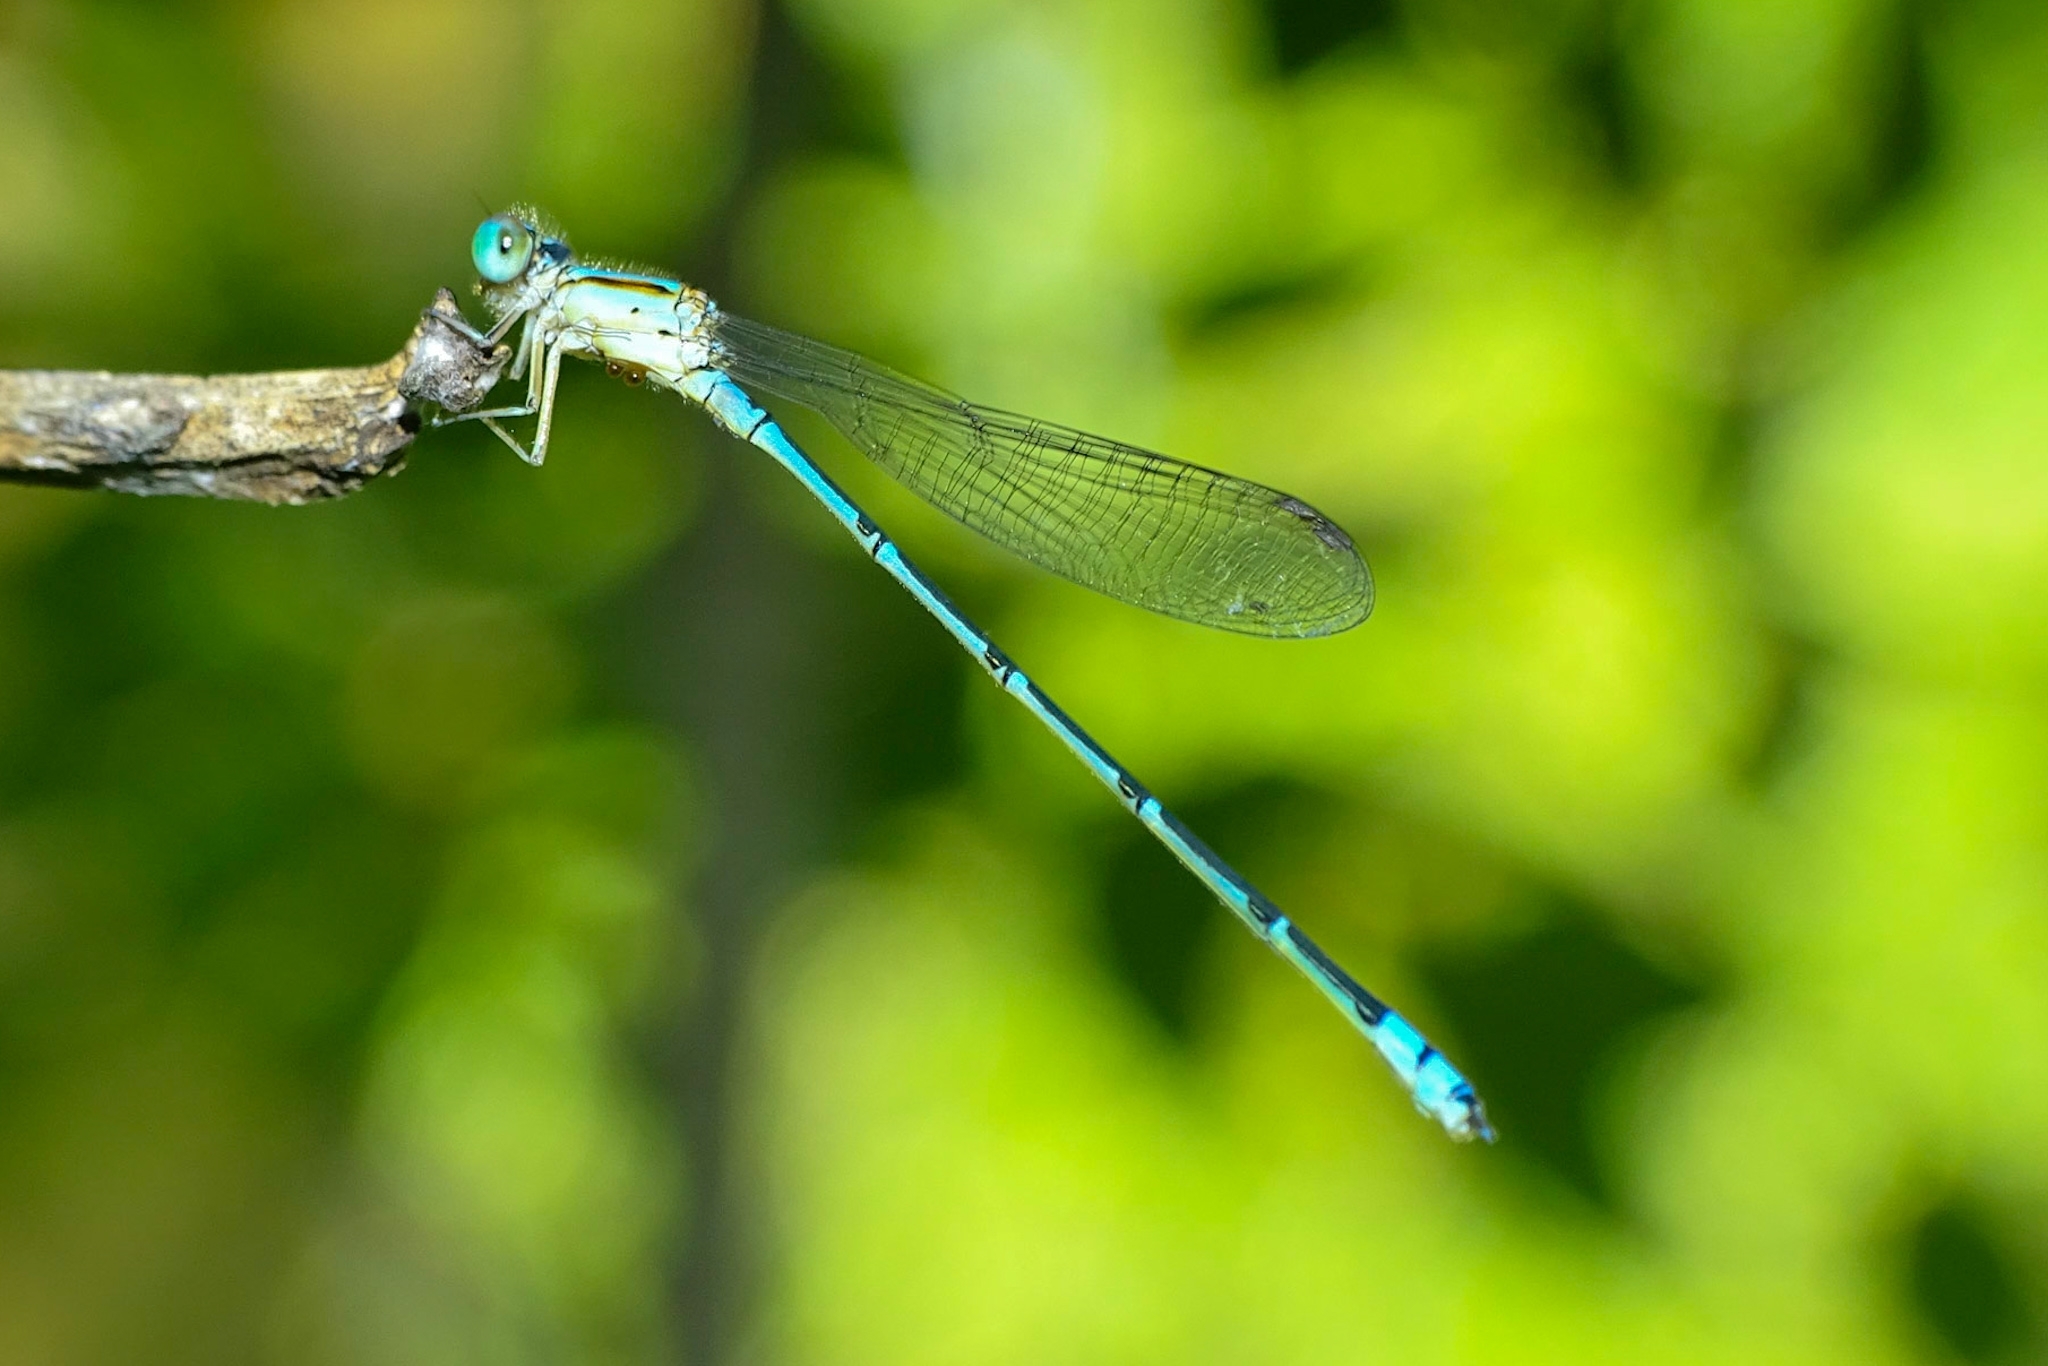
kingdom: Animalia
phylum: Arthropoda
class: Insecta
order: Odonata
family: Coenagrionidae
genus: Pseudagrion
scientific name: Pseudagrion microcephalum
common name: Blue riverdamsel
